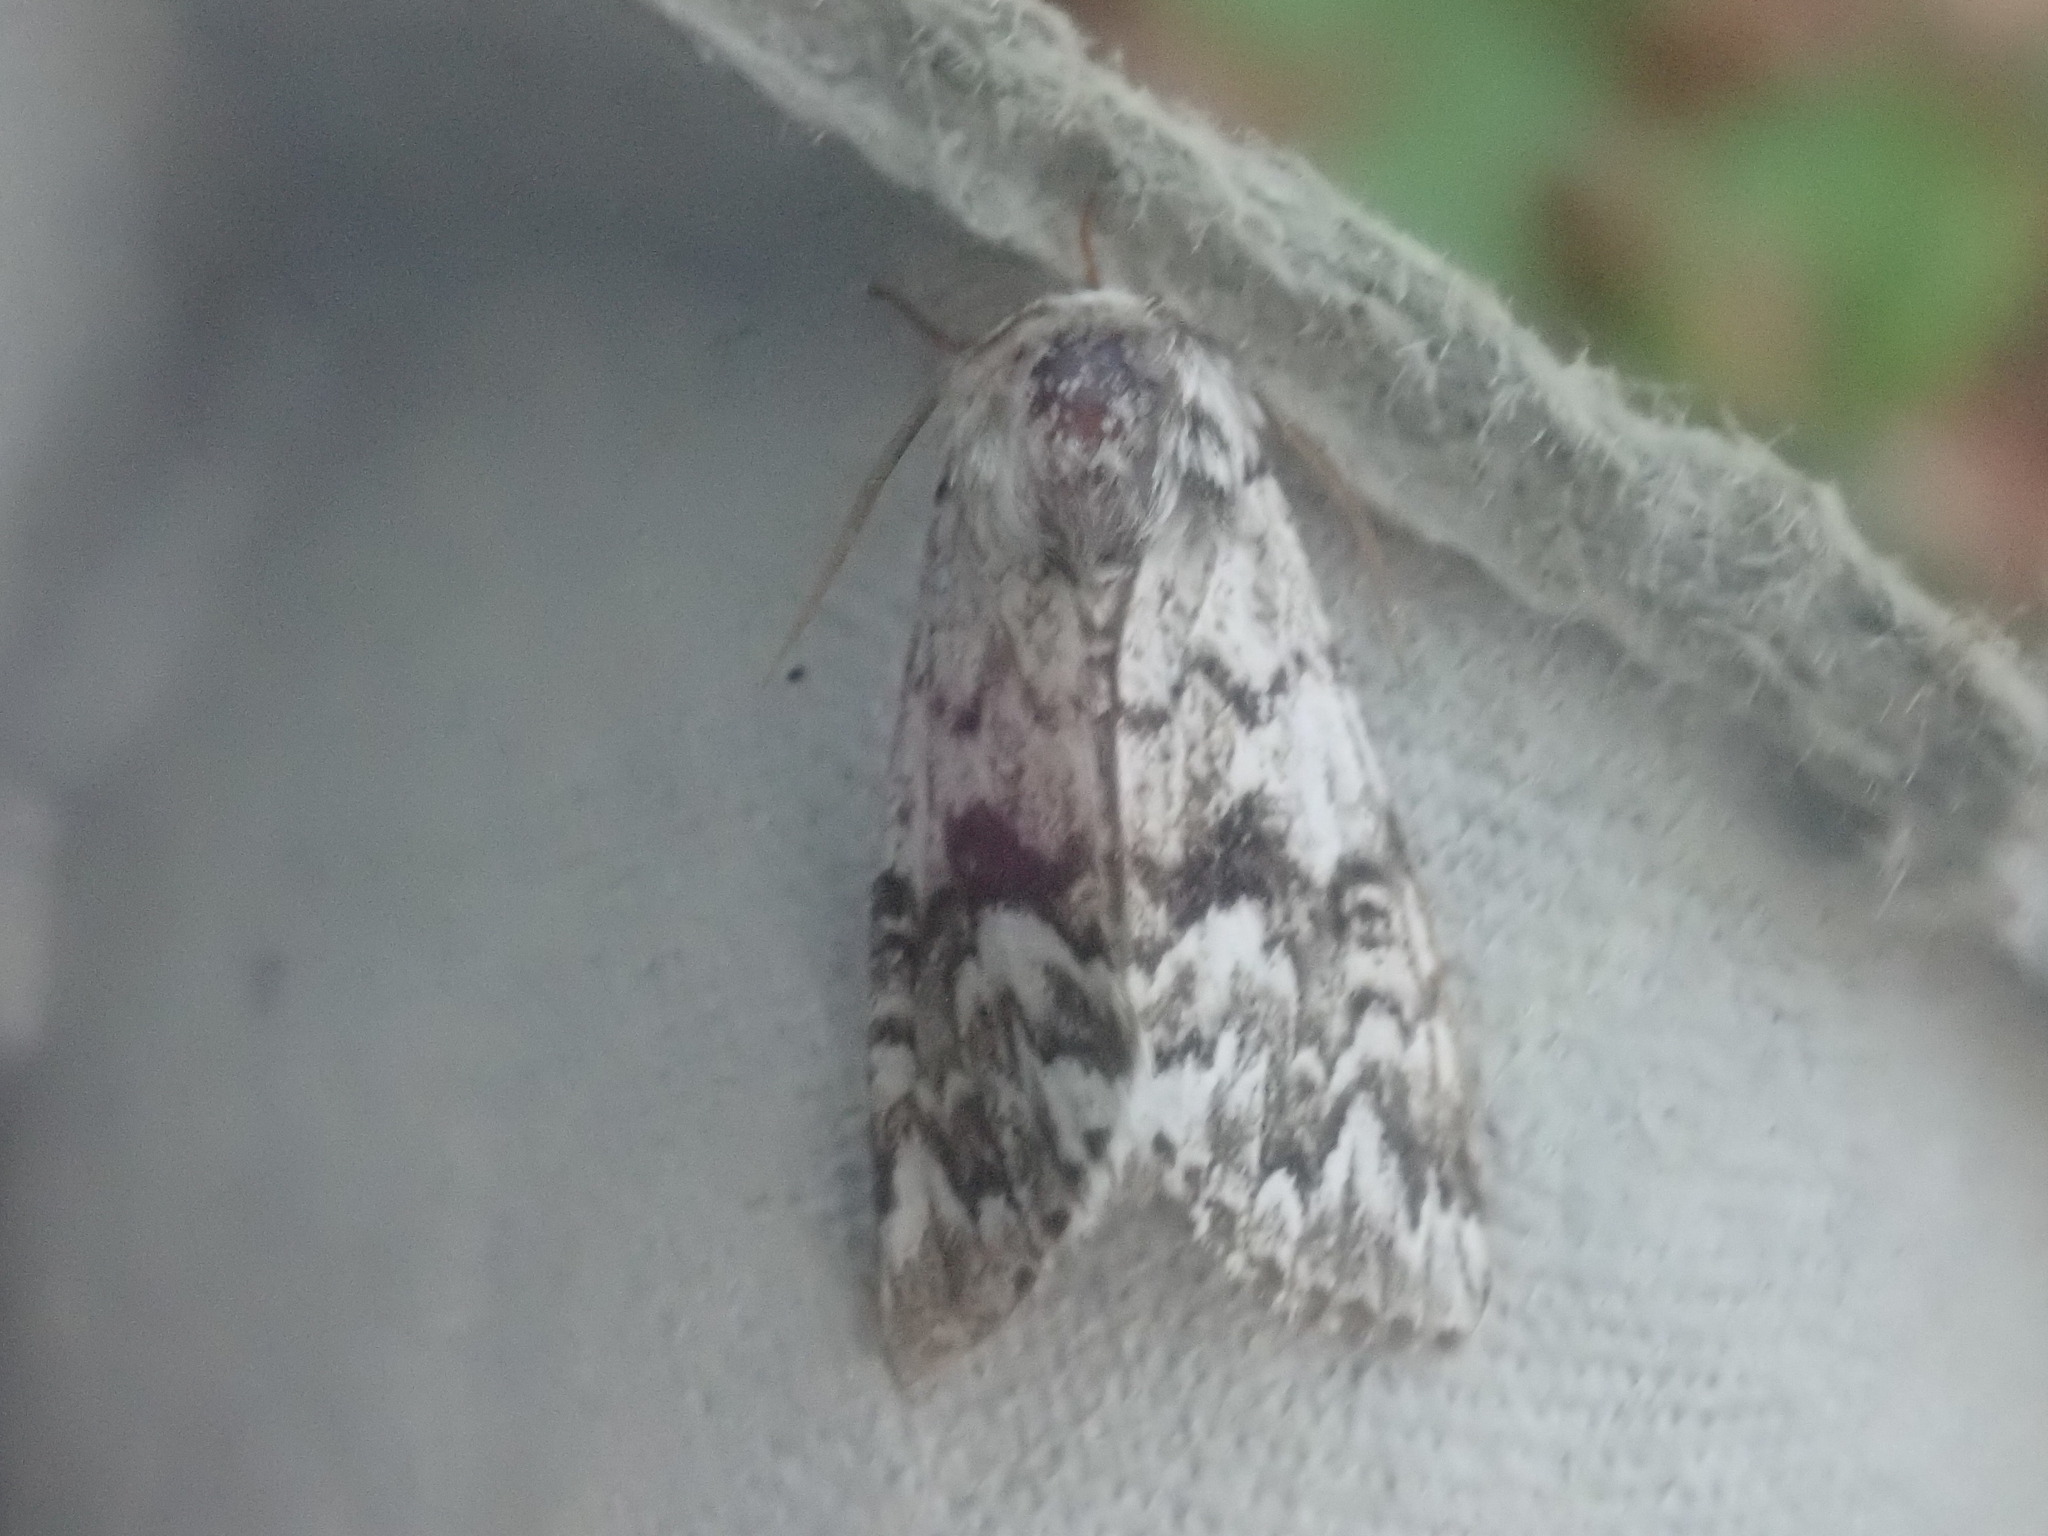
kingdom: Animalia
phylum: Arthropoda
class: Insecta
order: Lepidoptera
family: Noctuidae
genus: Panthea
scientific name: Panthea acronyctoides
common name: Black zigzag moth
